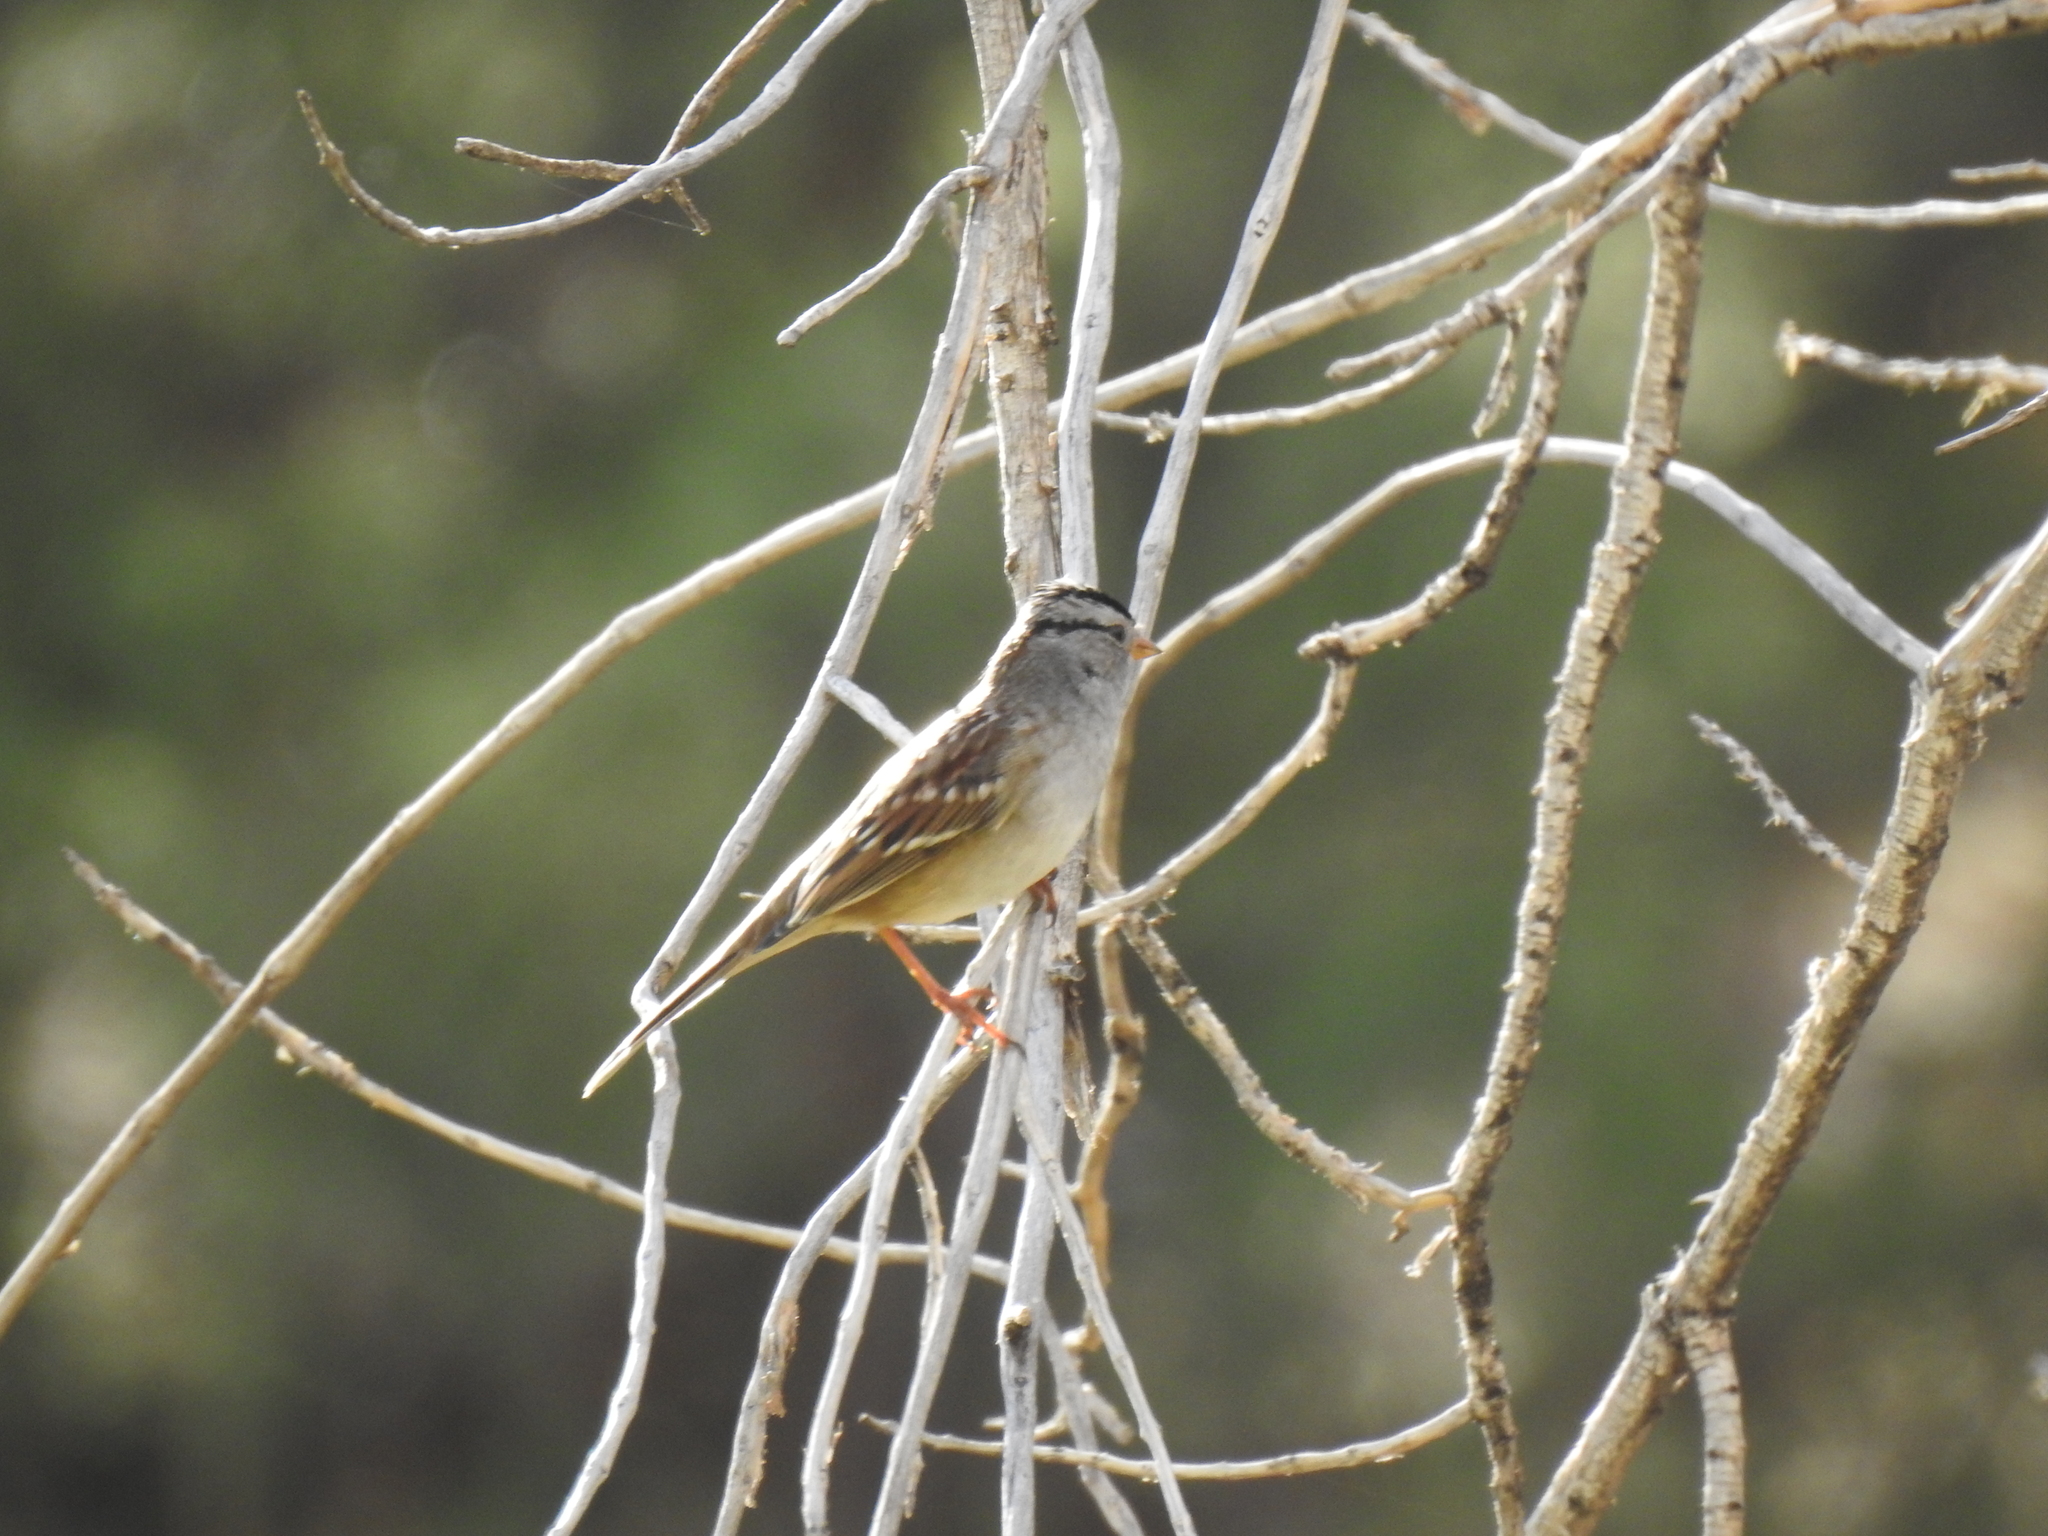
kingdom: Animalia
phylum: Chordata
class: Aves
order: Passeriformes
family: Passerellidae
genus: Zonotrichia
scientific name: Zonotrichia leucophrys
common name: White-crowned sparrow
